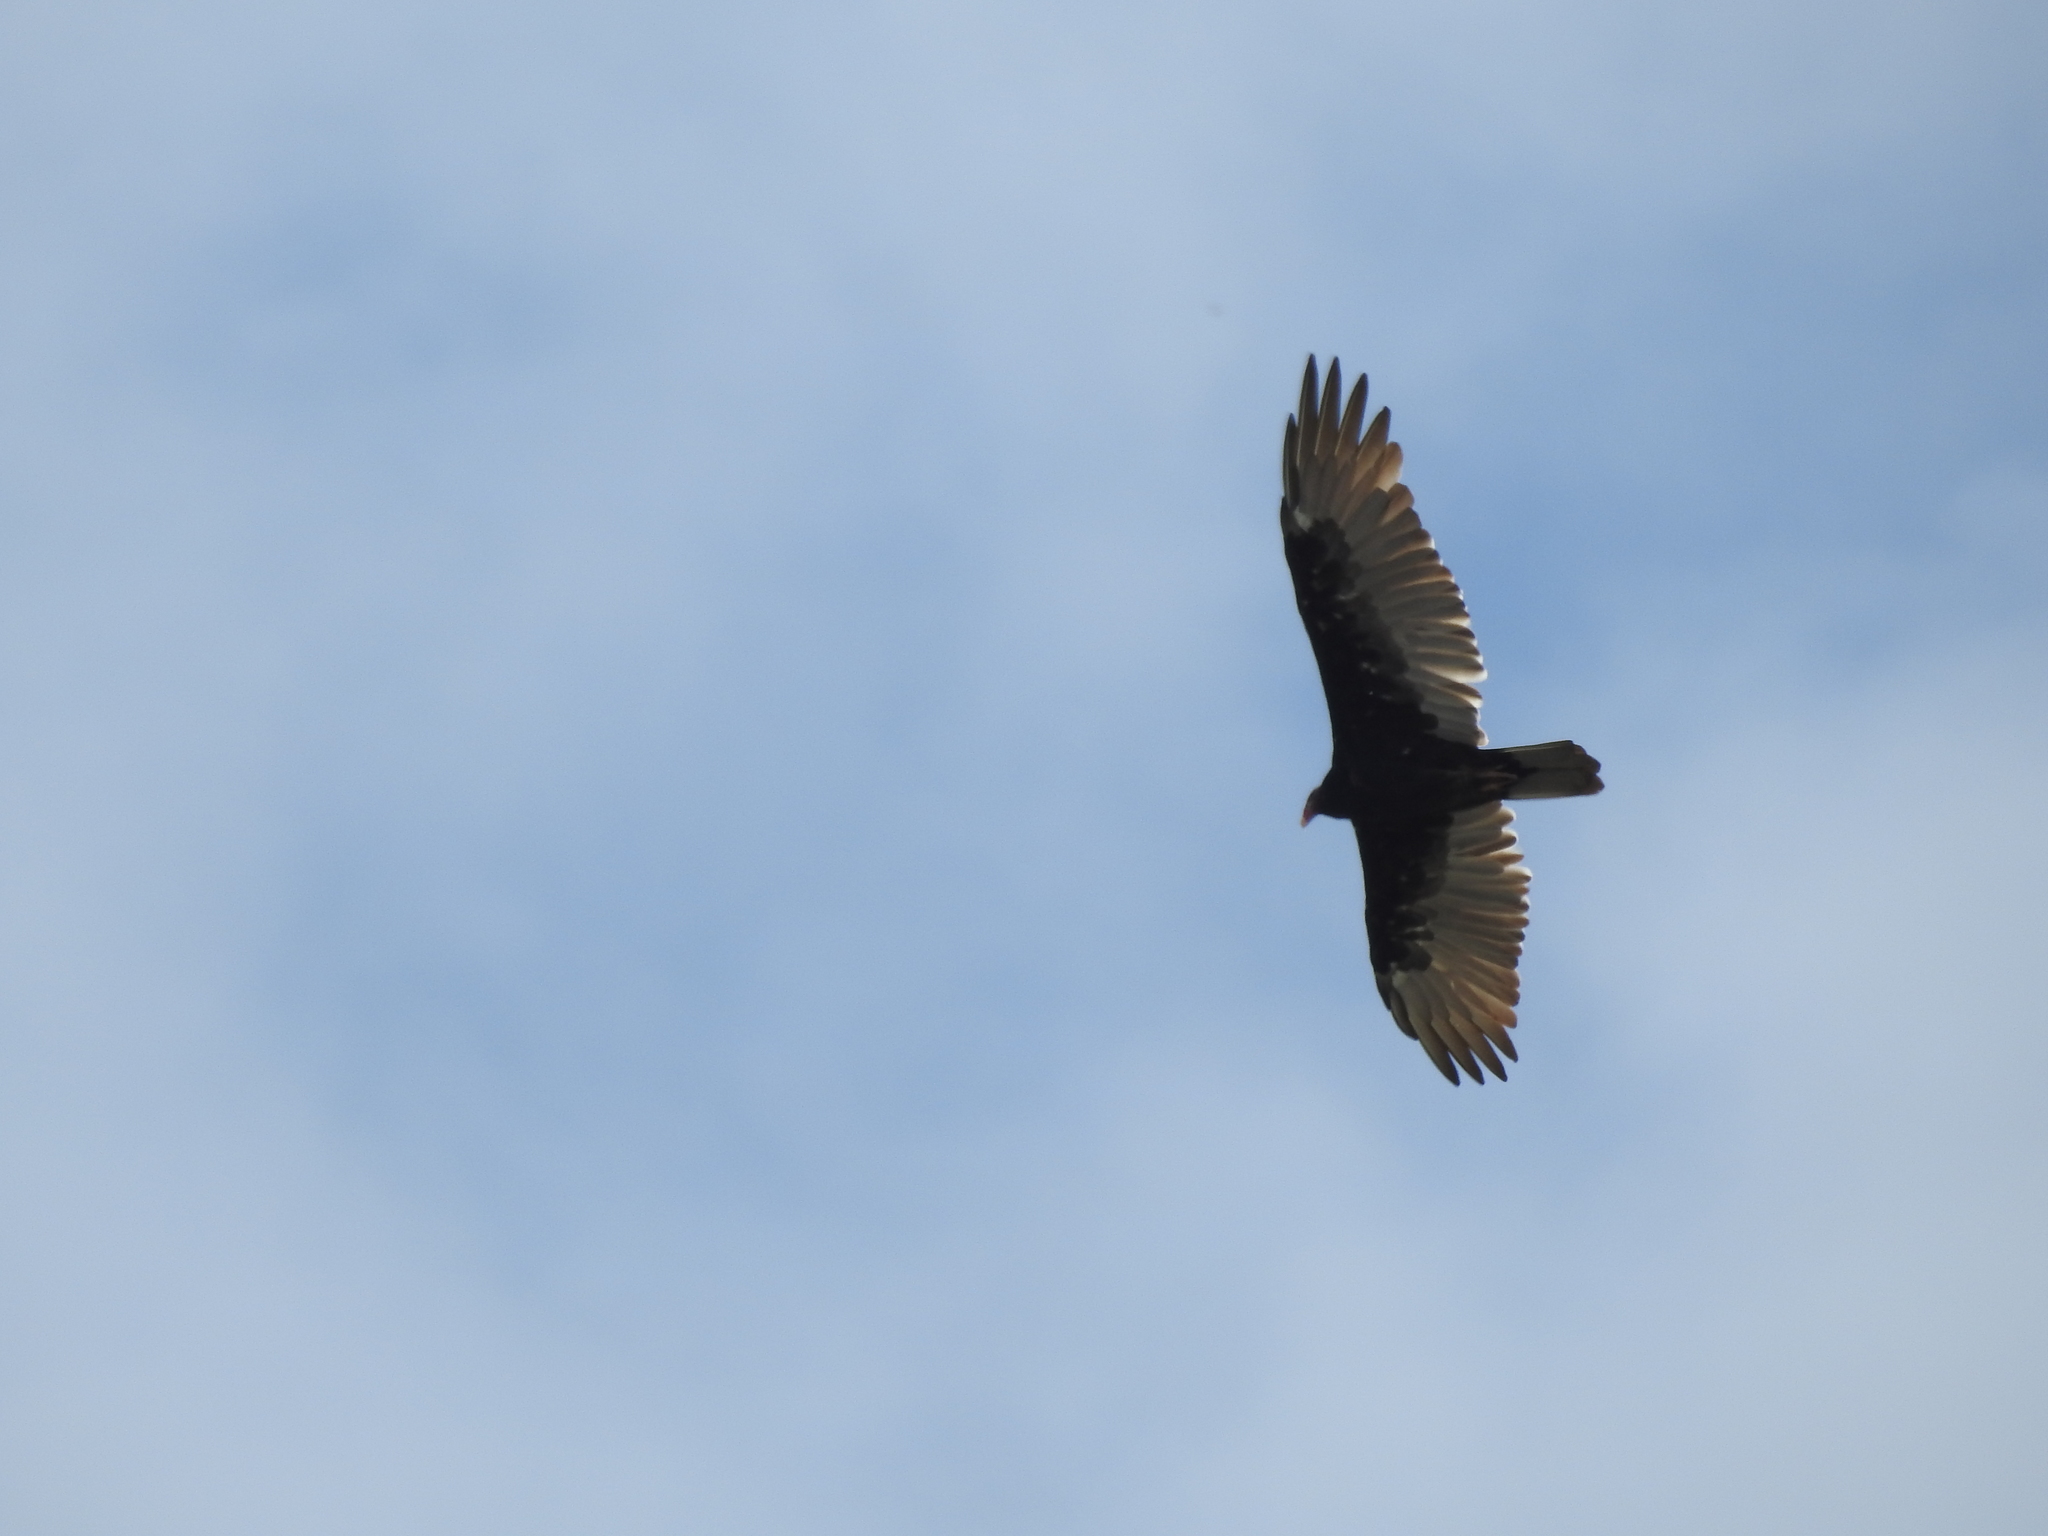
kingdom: Animalia
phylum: Chordata
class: Aves
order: Accipitriformes
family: Cathartidae
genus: Cathartes
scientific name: Cathartes aura
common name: Turkey vulture
